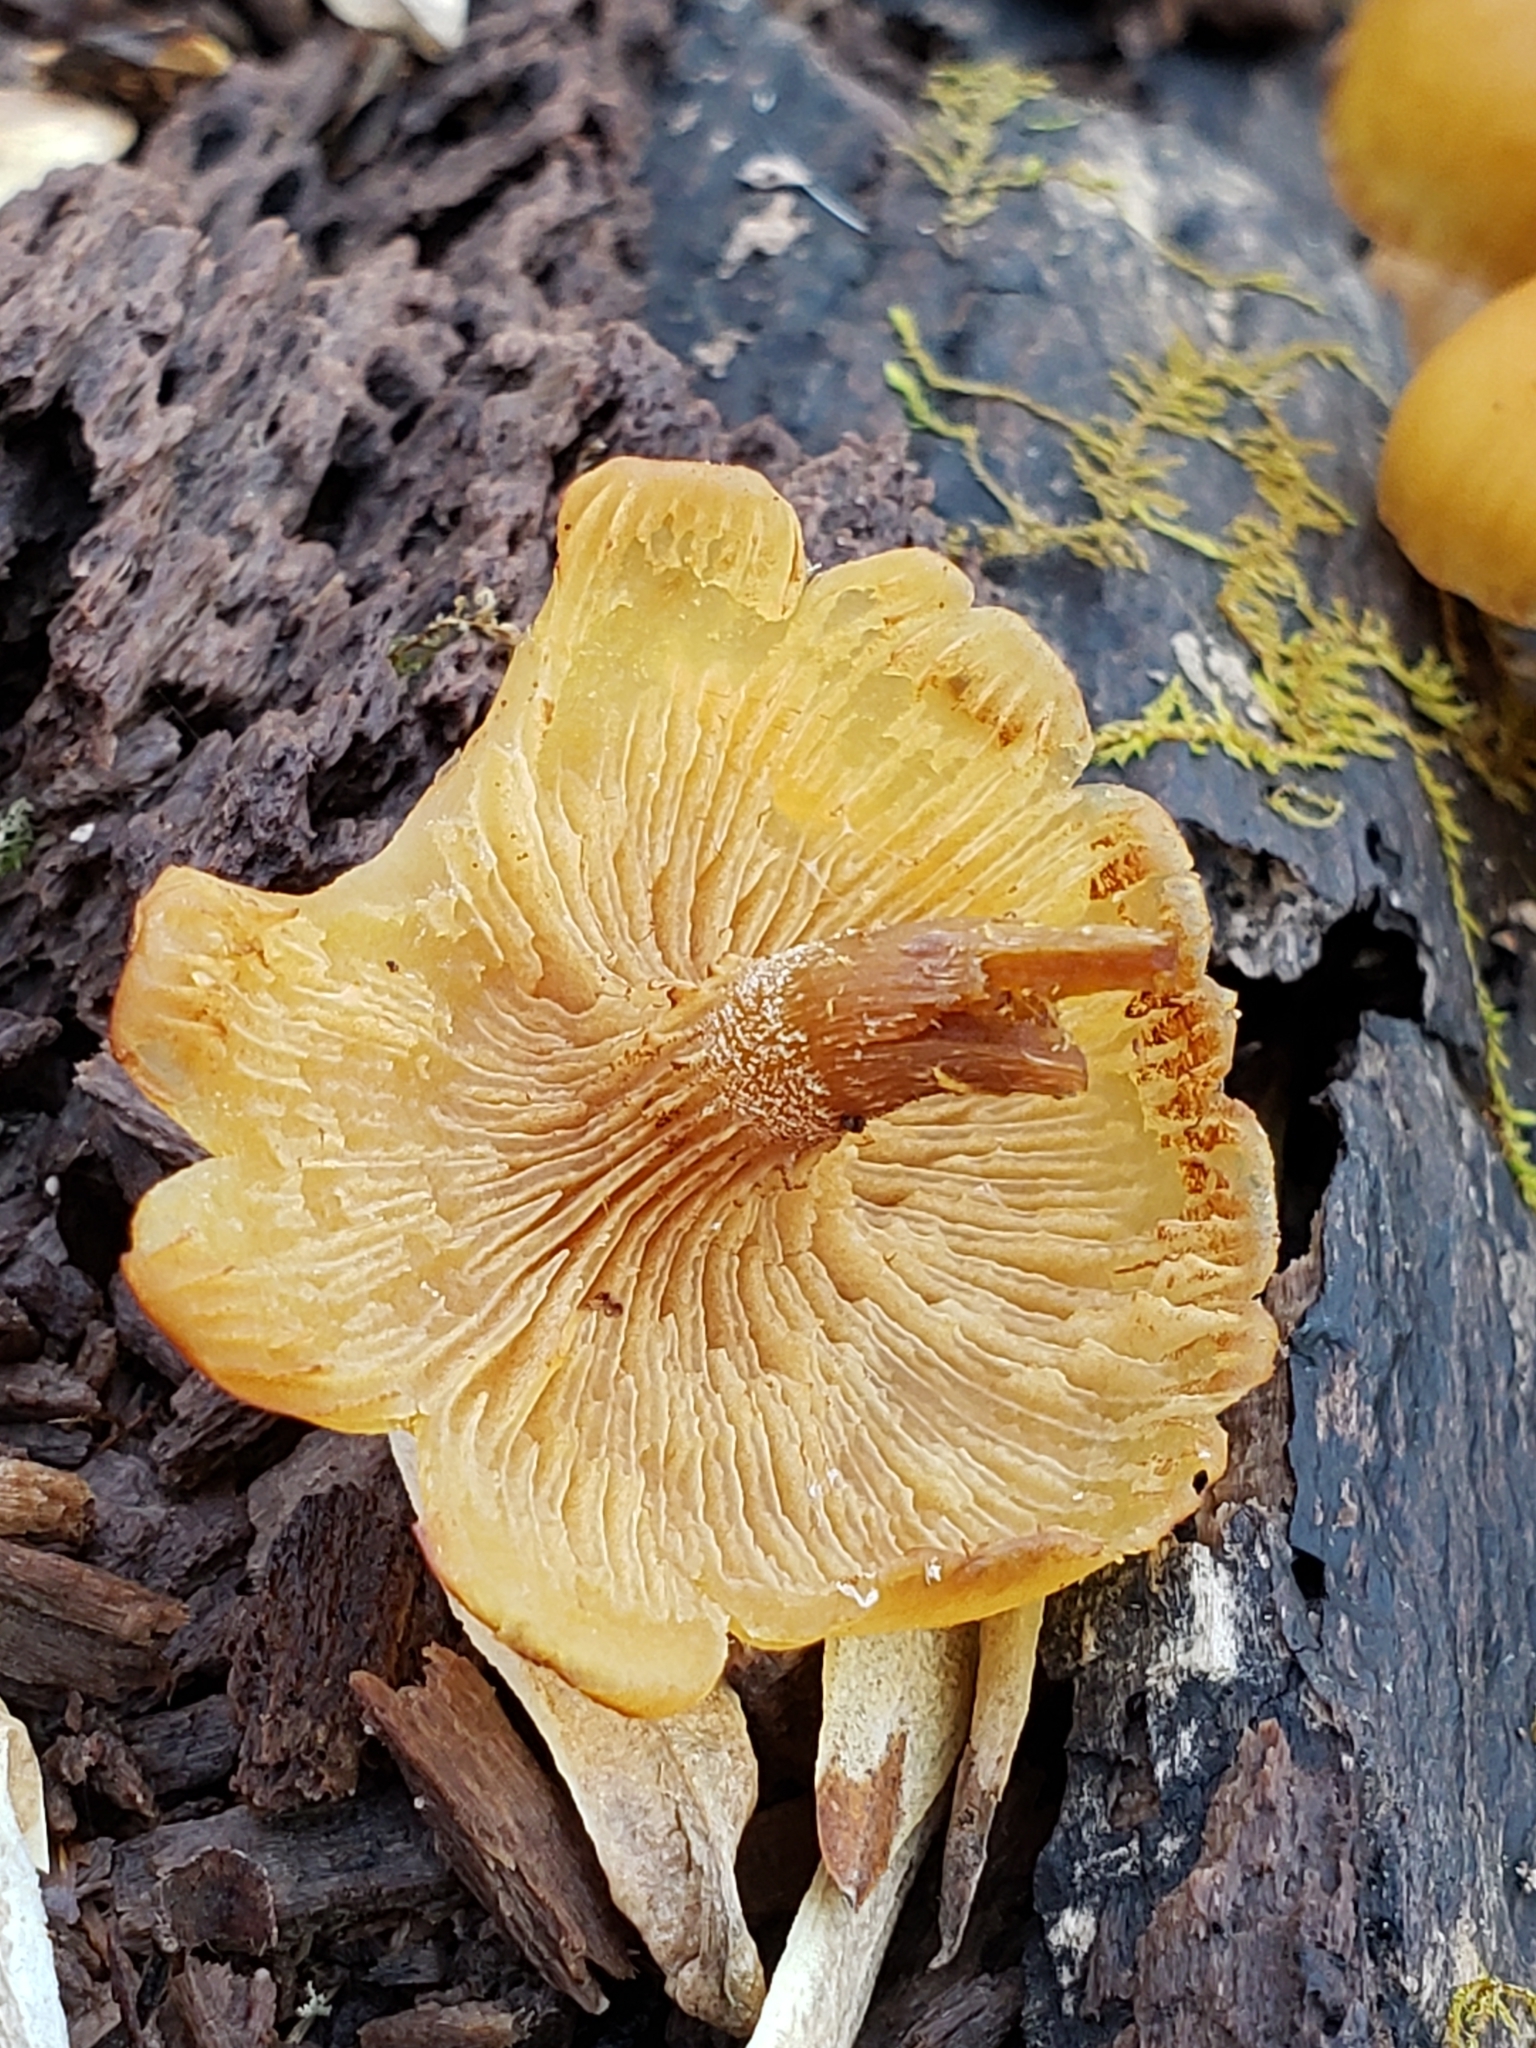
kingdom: Fungi
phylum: Basidiomycota
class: Agaricomycetes
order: Agaricales
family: Hymenogastraceae
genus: Galerina
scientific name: Galerina marginata
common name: Funeral bell
